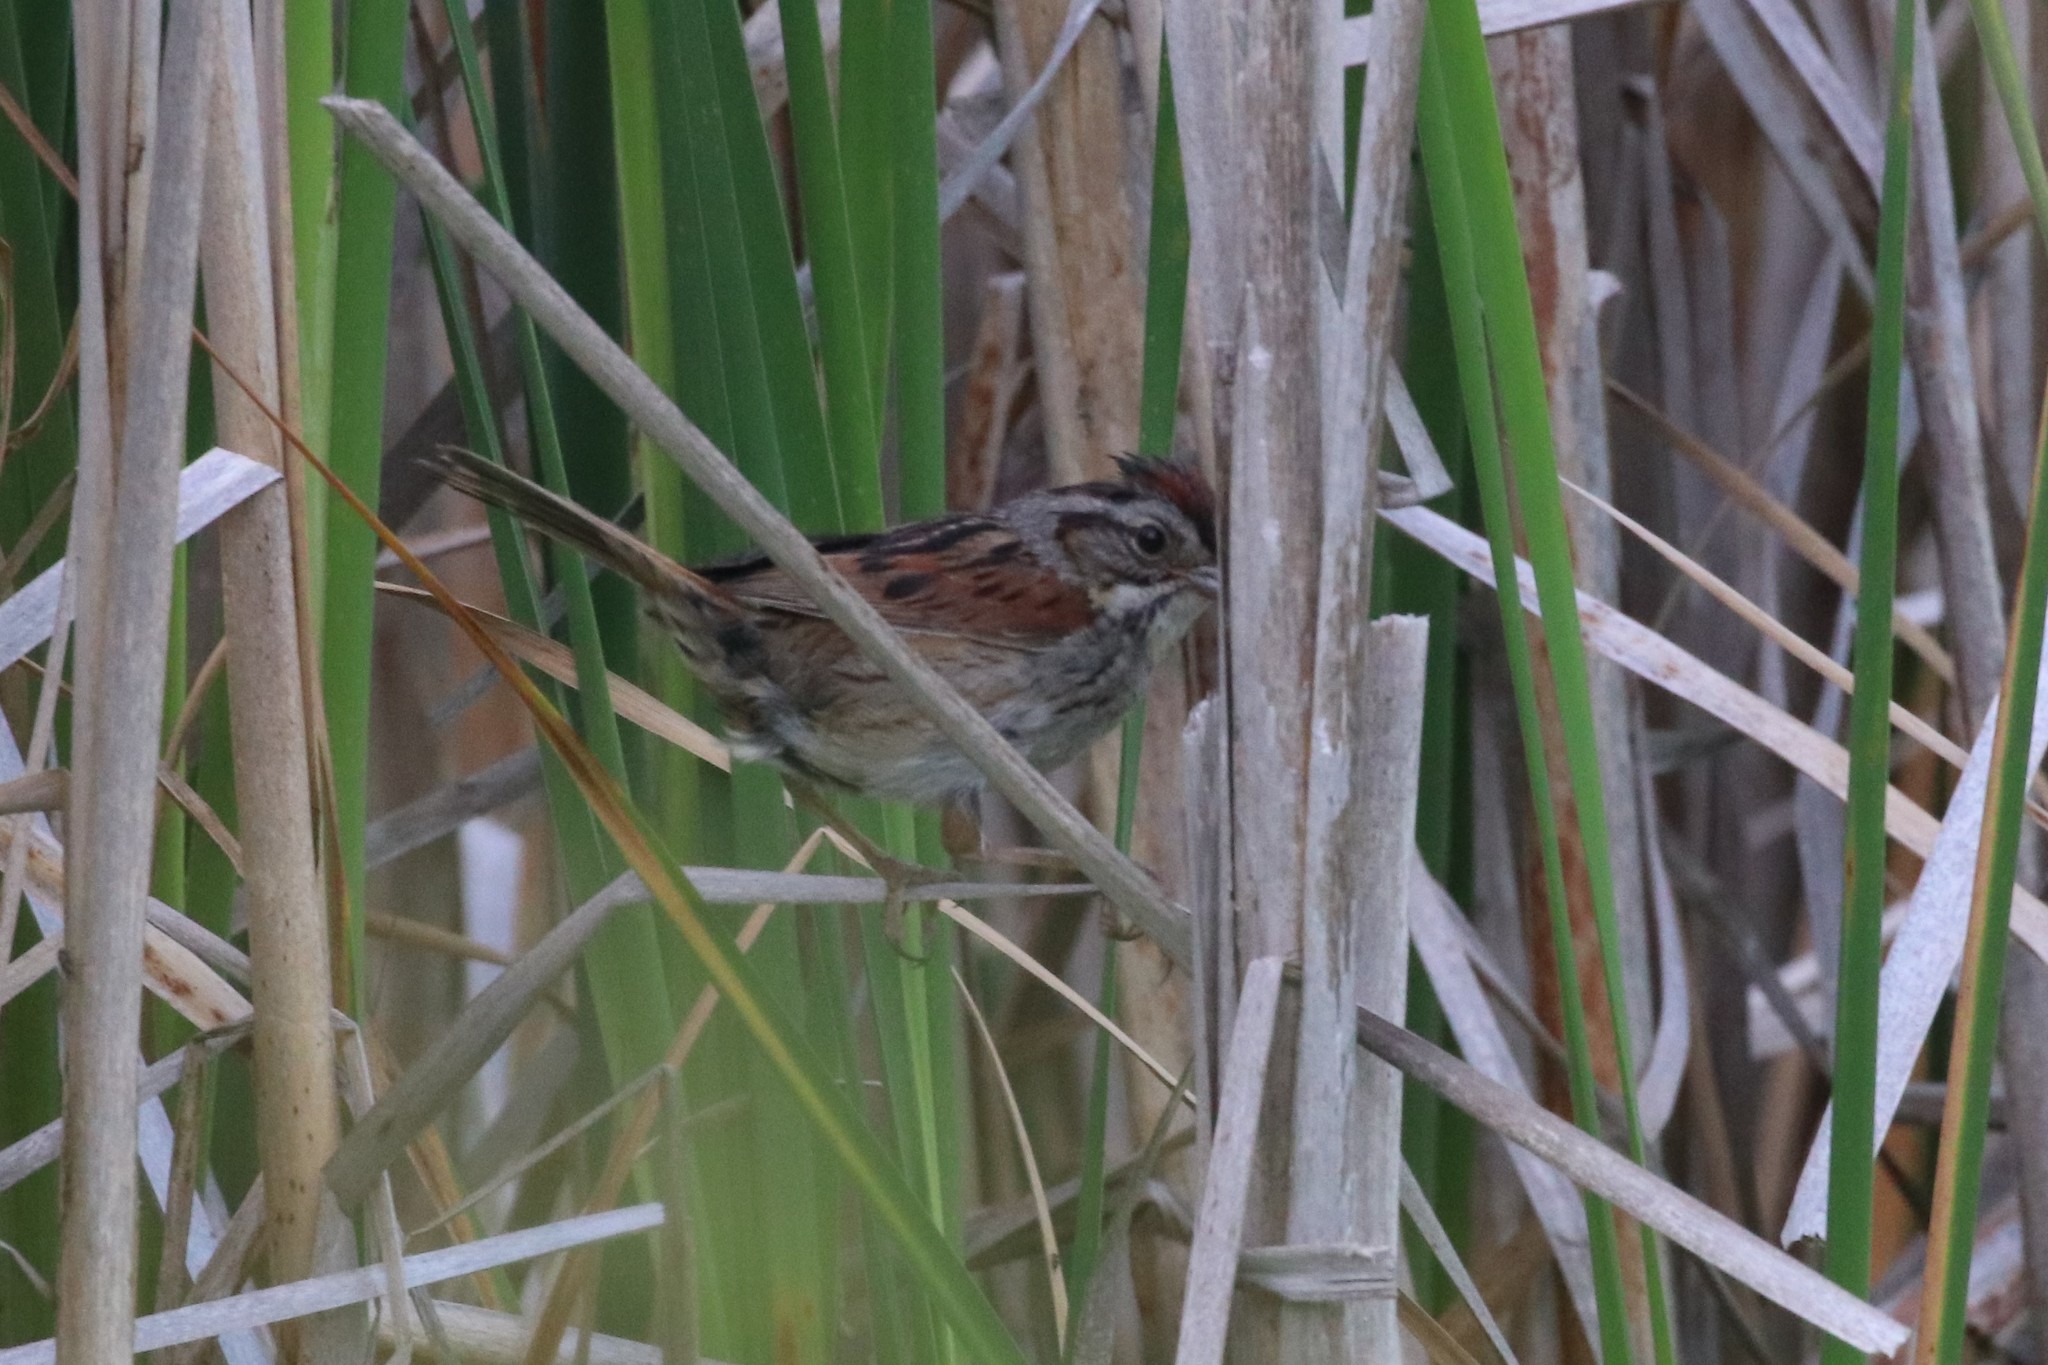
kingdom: Animalia
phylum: Chordata
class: Aves
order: Passeriformes
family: Passerellidae
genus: Melospiza
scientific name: Melospiza georgiana
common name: Swamp sparrow
